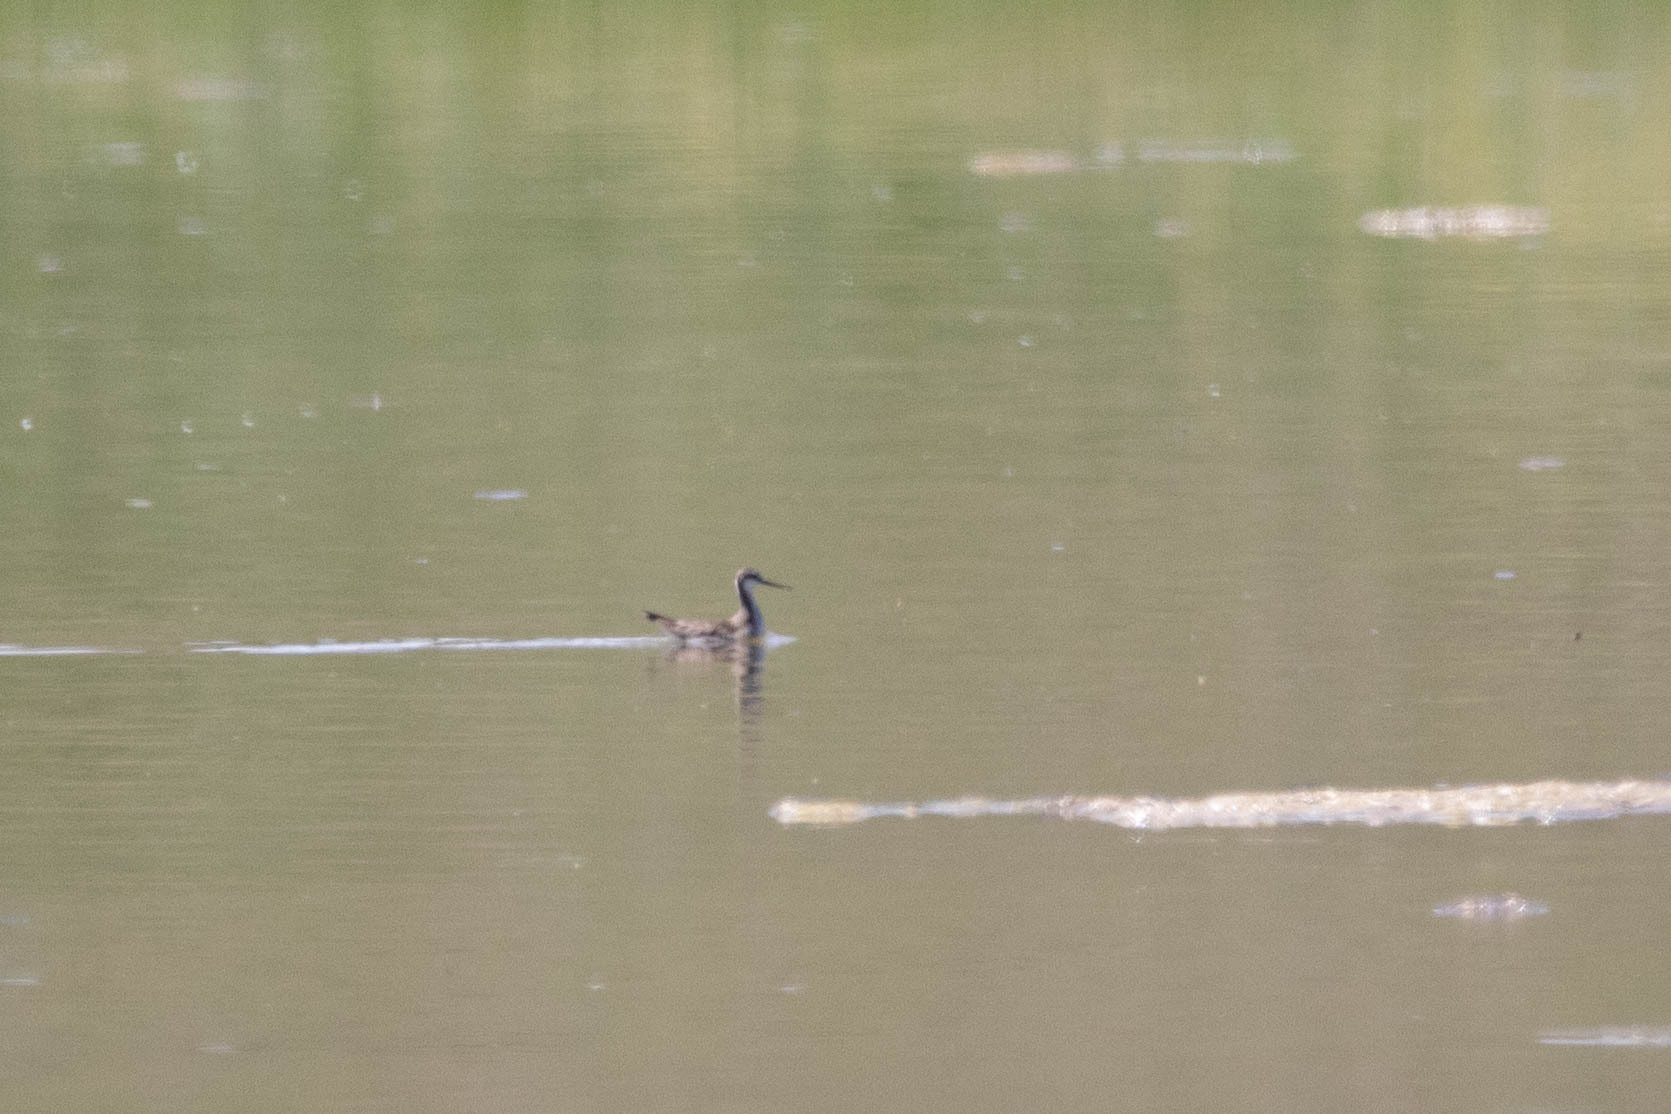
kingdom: Animalia
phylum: Chordata
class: Aves
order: Charadriiformes
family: Scolopacidae
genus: Phalaropus
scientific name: Phalaropus tricolor
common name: Wilson's phalarope
